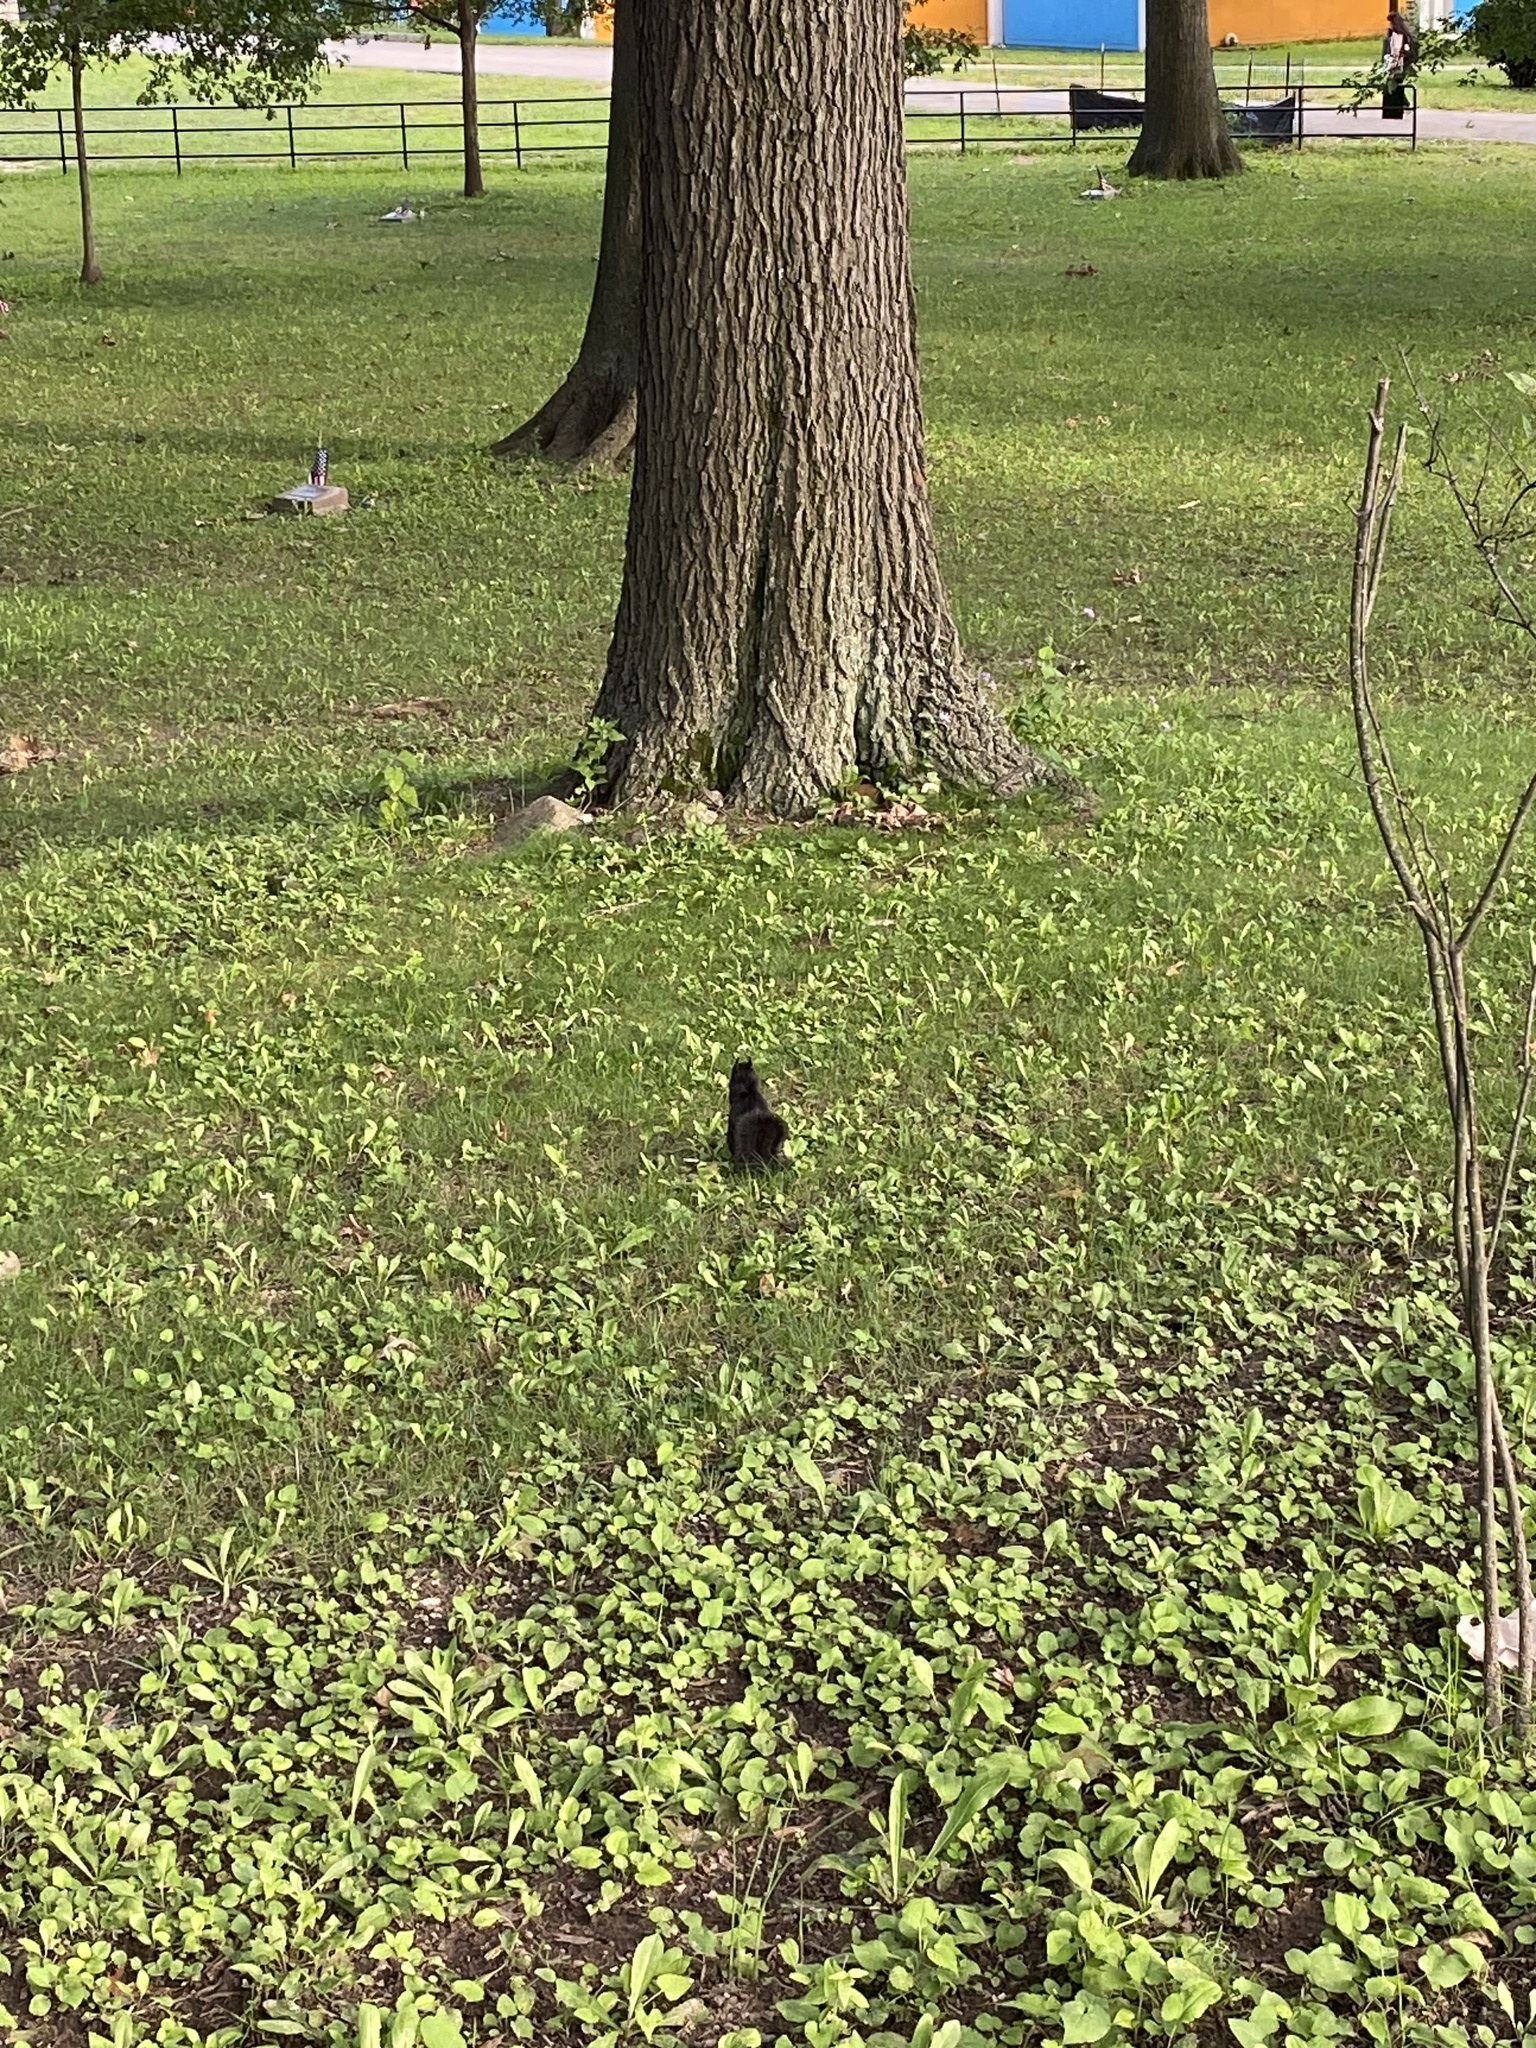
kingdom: Animalia
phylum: Chordata
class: Mammalia
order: Rodentia
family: Sciuridae
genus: Sciurus
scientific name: Sciurus carolinensis
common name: Eastern gray squirrel
